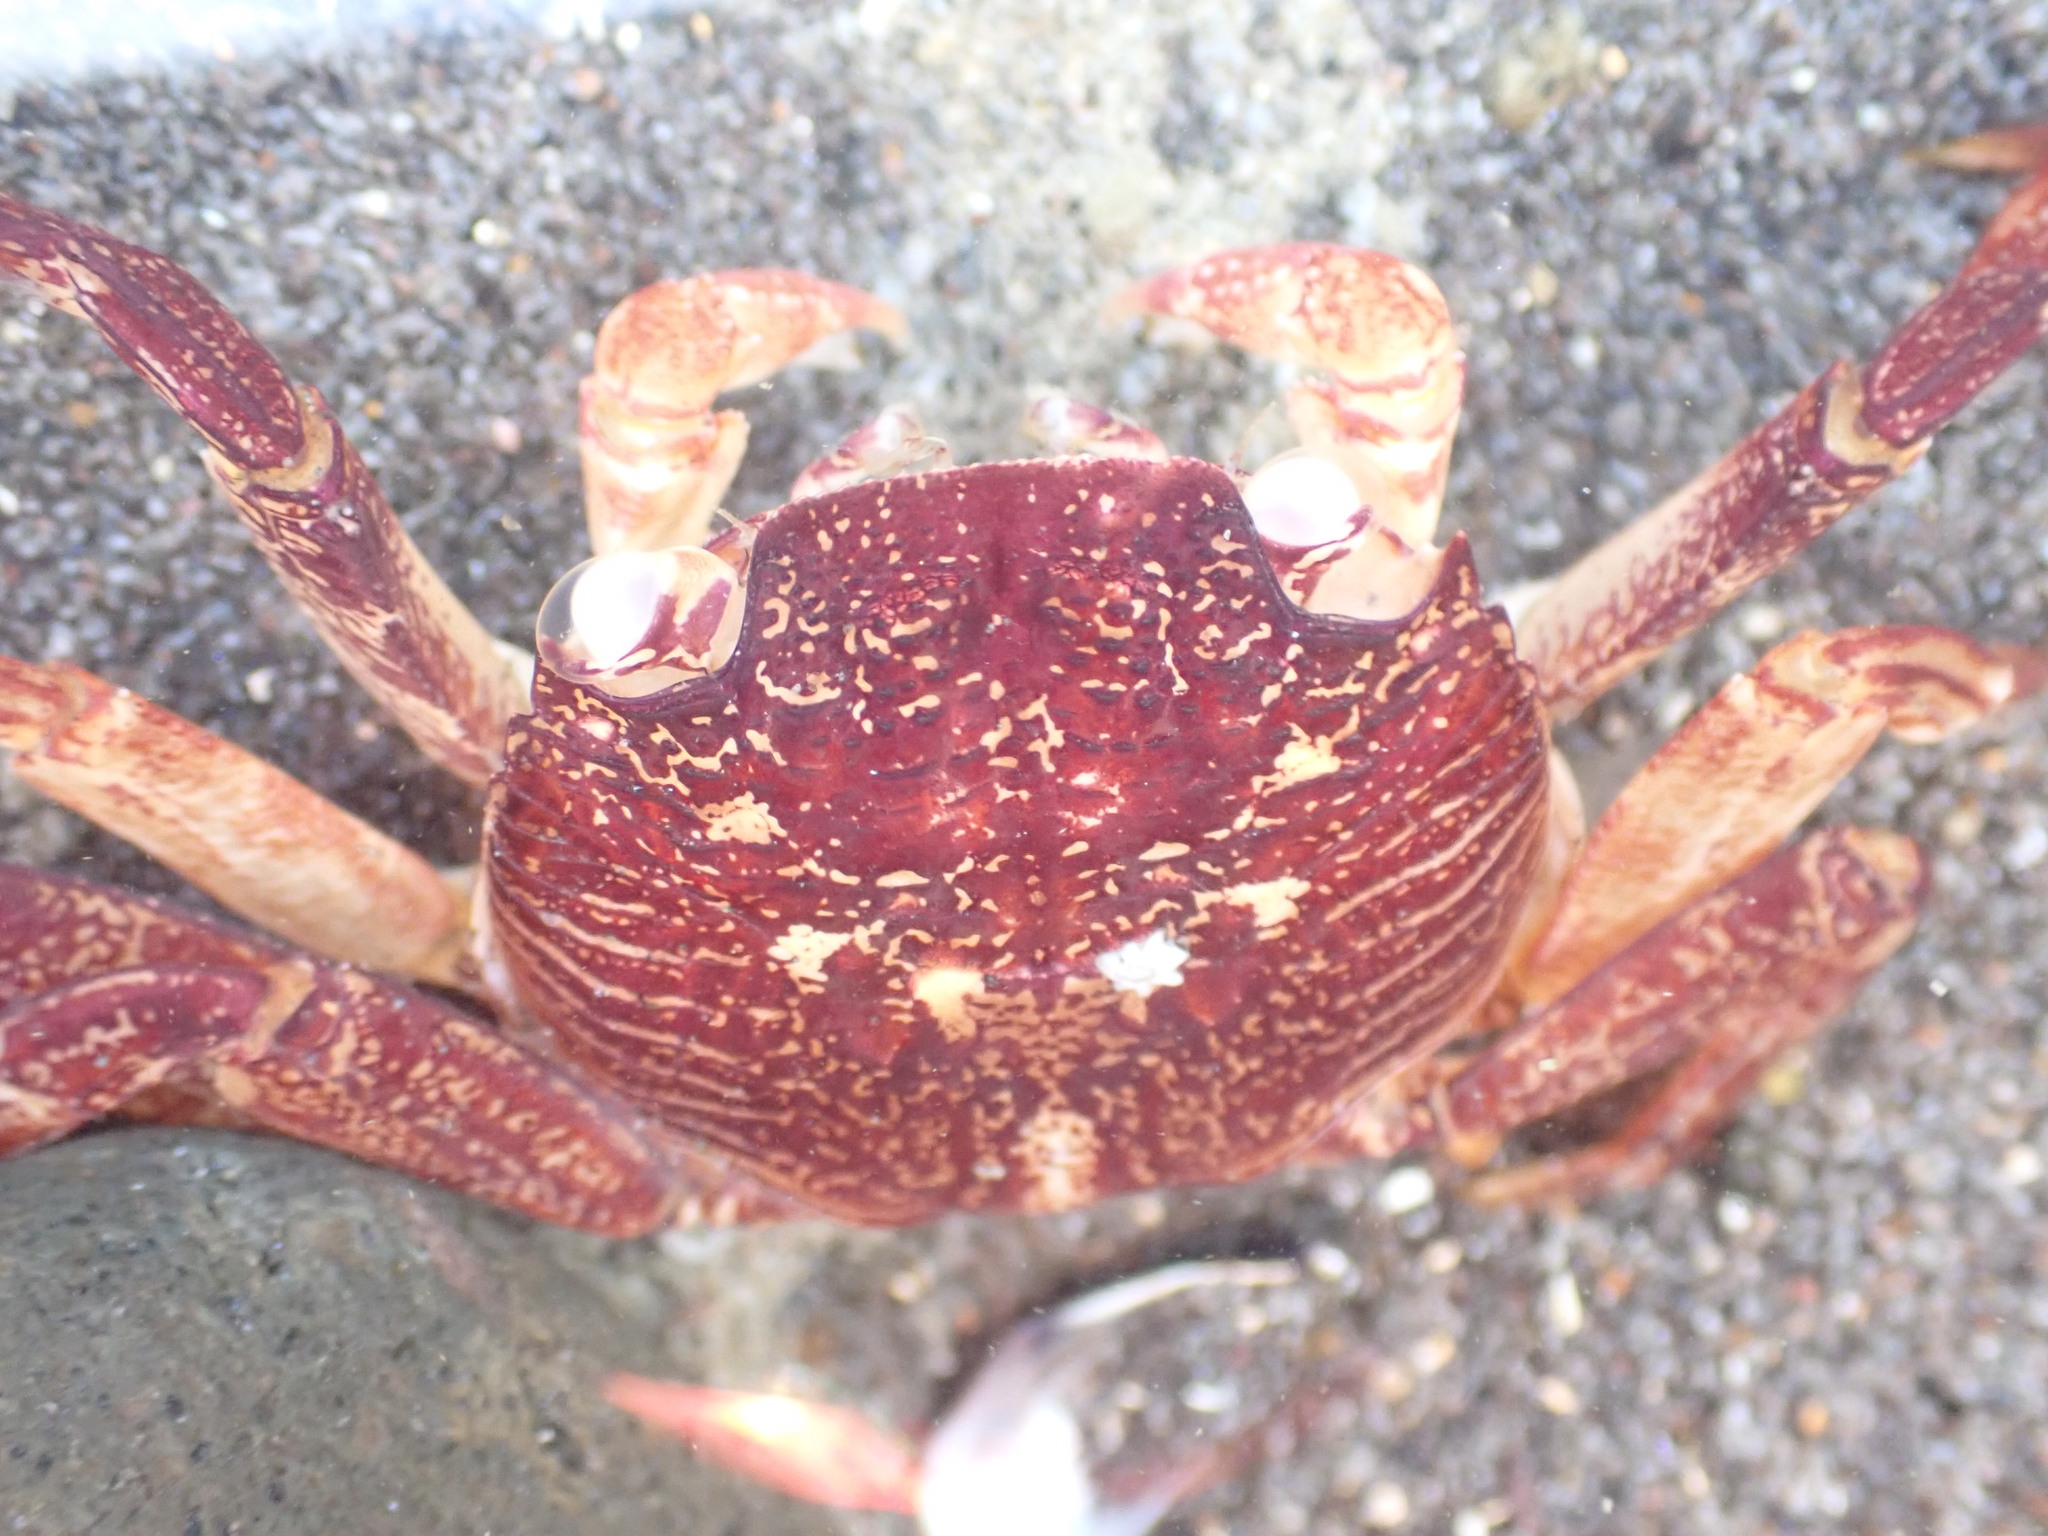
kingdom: Animalia
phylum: Arthropoda
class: Malacostraca
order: Decapoda
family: Grapsidae
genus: Leptograpsus
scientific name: Leptograpsus variegatus
